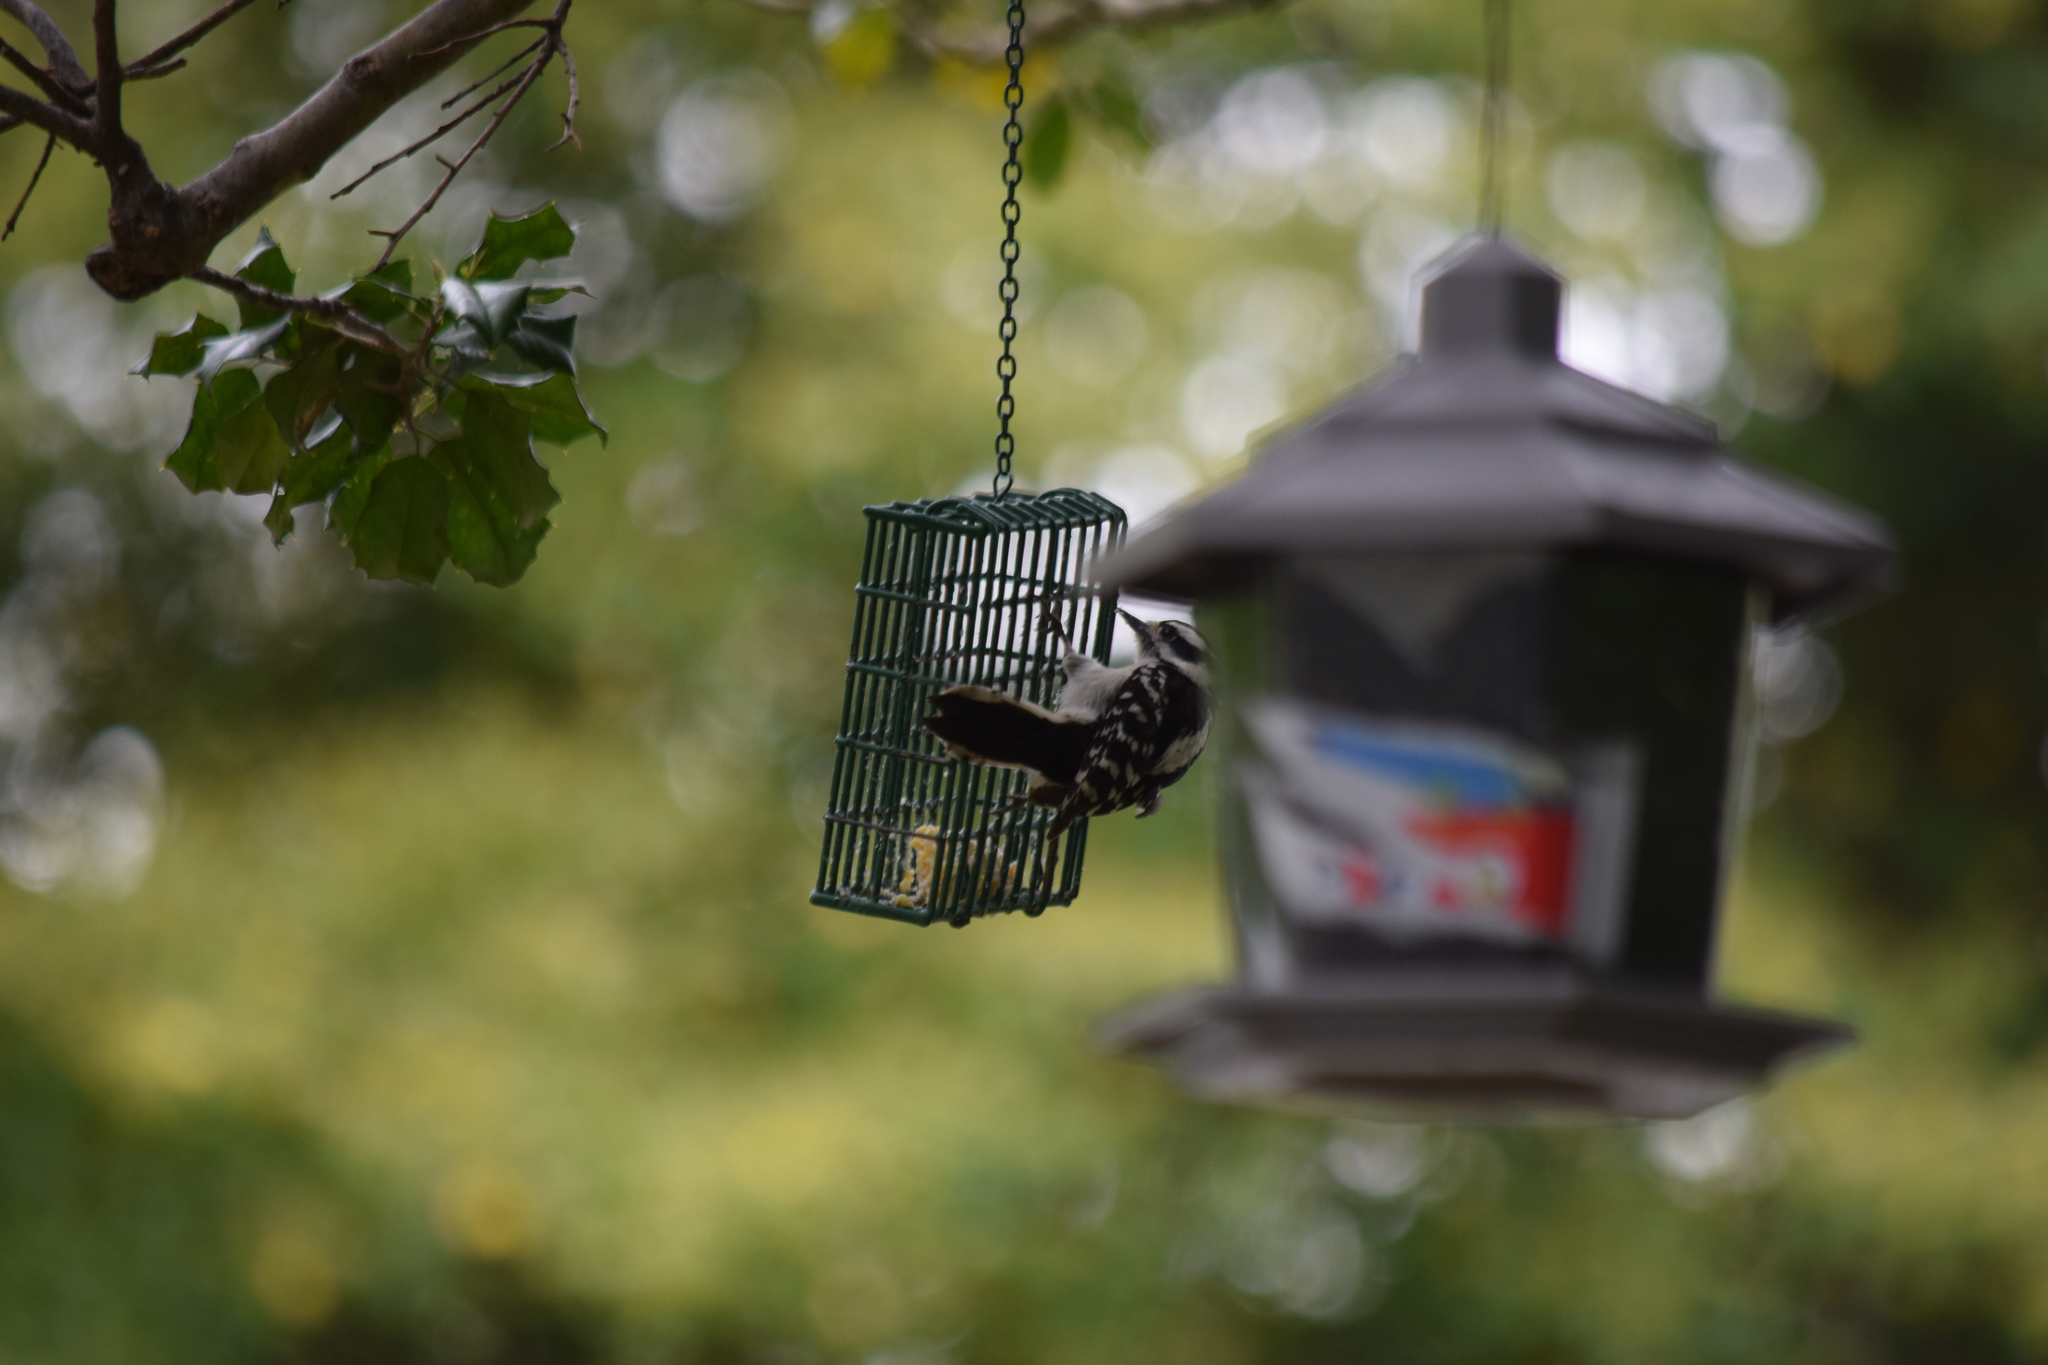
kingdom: Animalia
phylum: Chordata
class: Aves
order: Piciformes
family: Picidae
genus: Dryobates
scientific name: Dryobates pubescens
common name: Downy woodpecker
